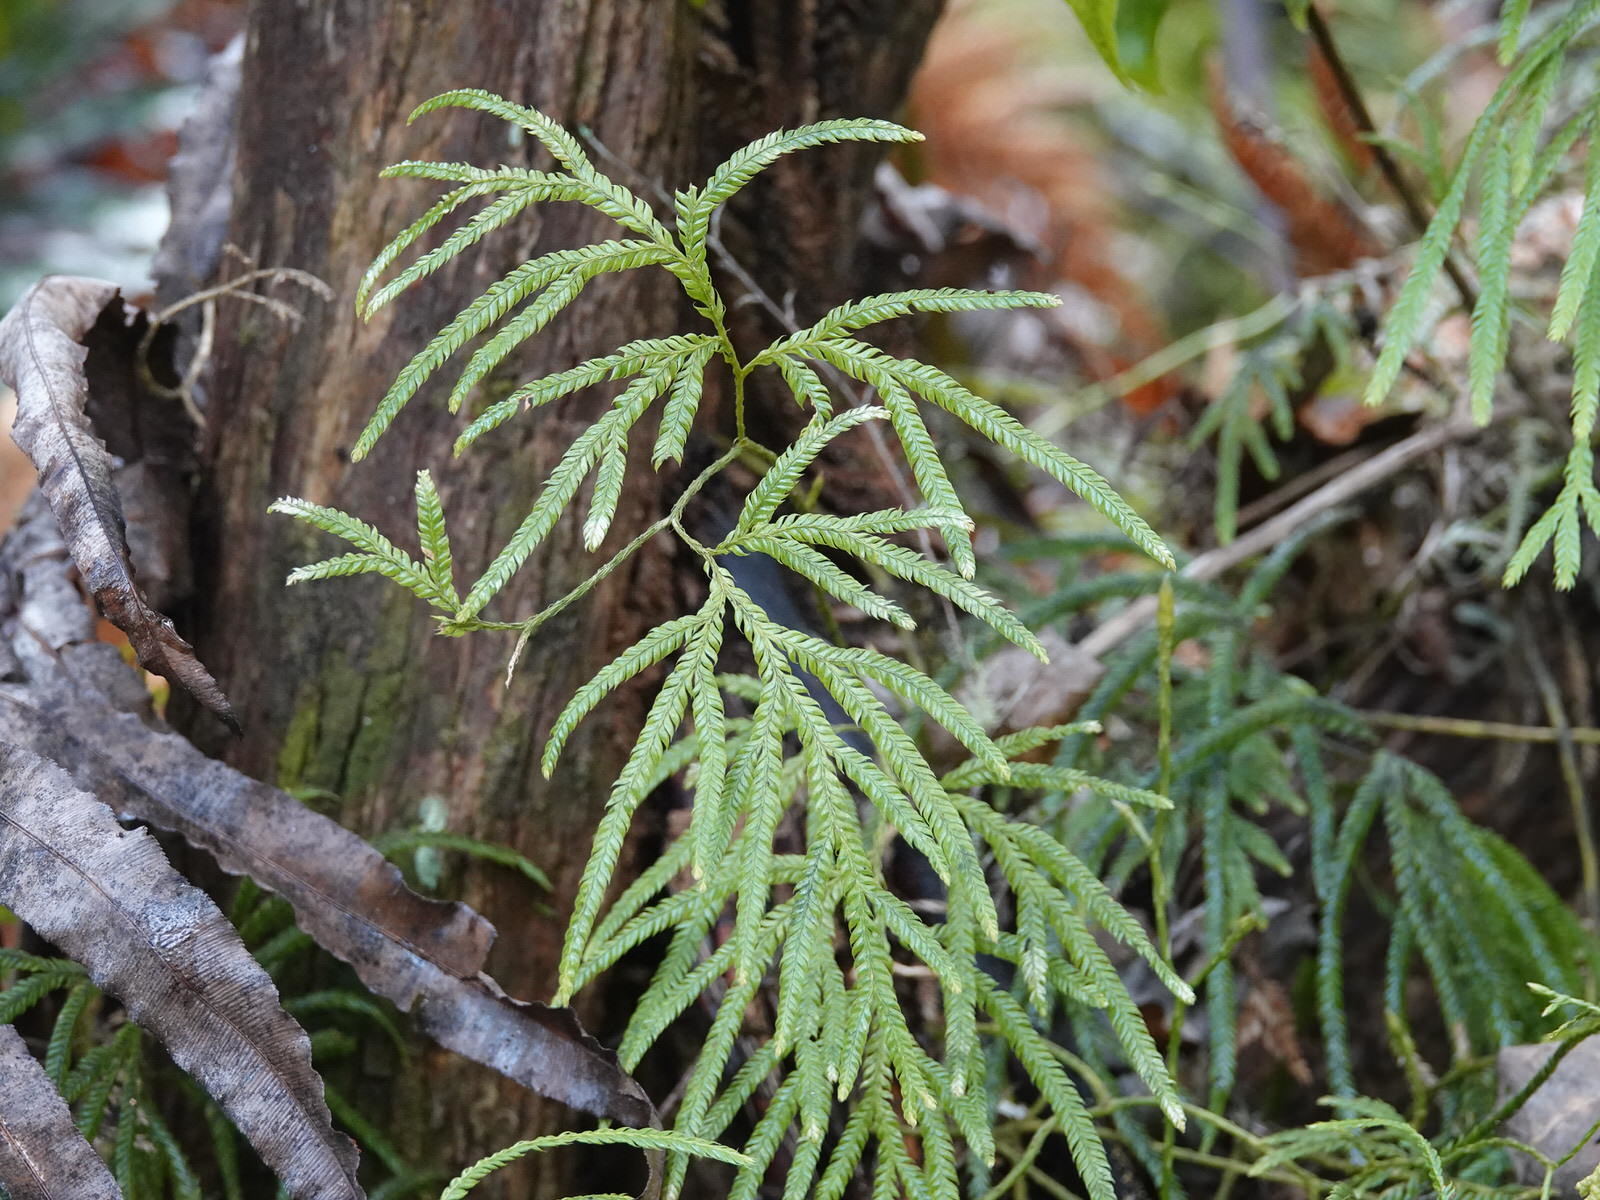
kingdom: Plantae
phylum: Tracheophyta
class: Lycopodiopsida
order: Lycopodiales
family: Lycopodiaceae
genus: Lycopodium
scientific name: Lycopodium volubile
